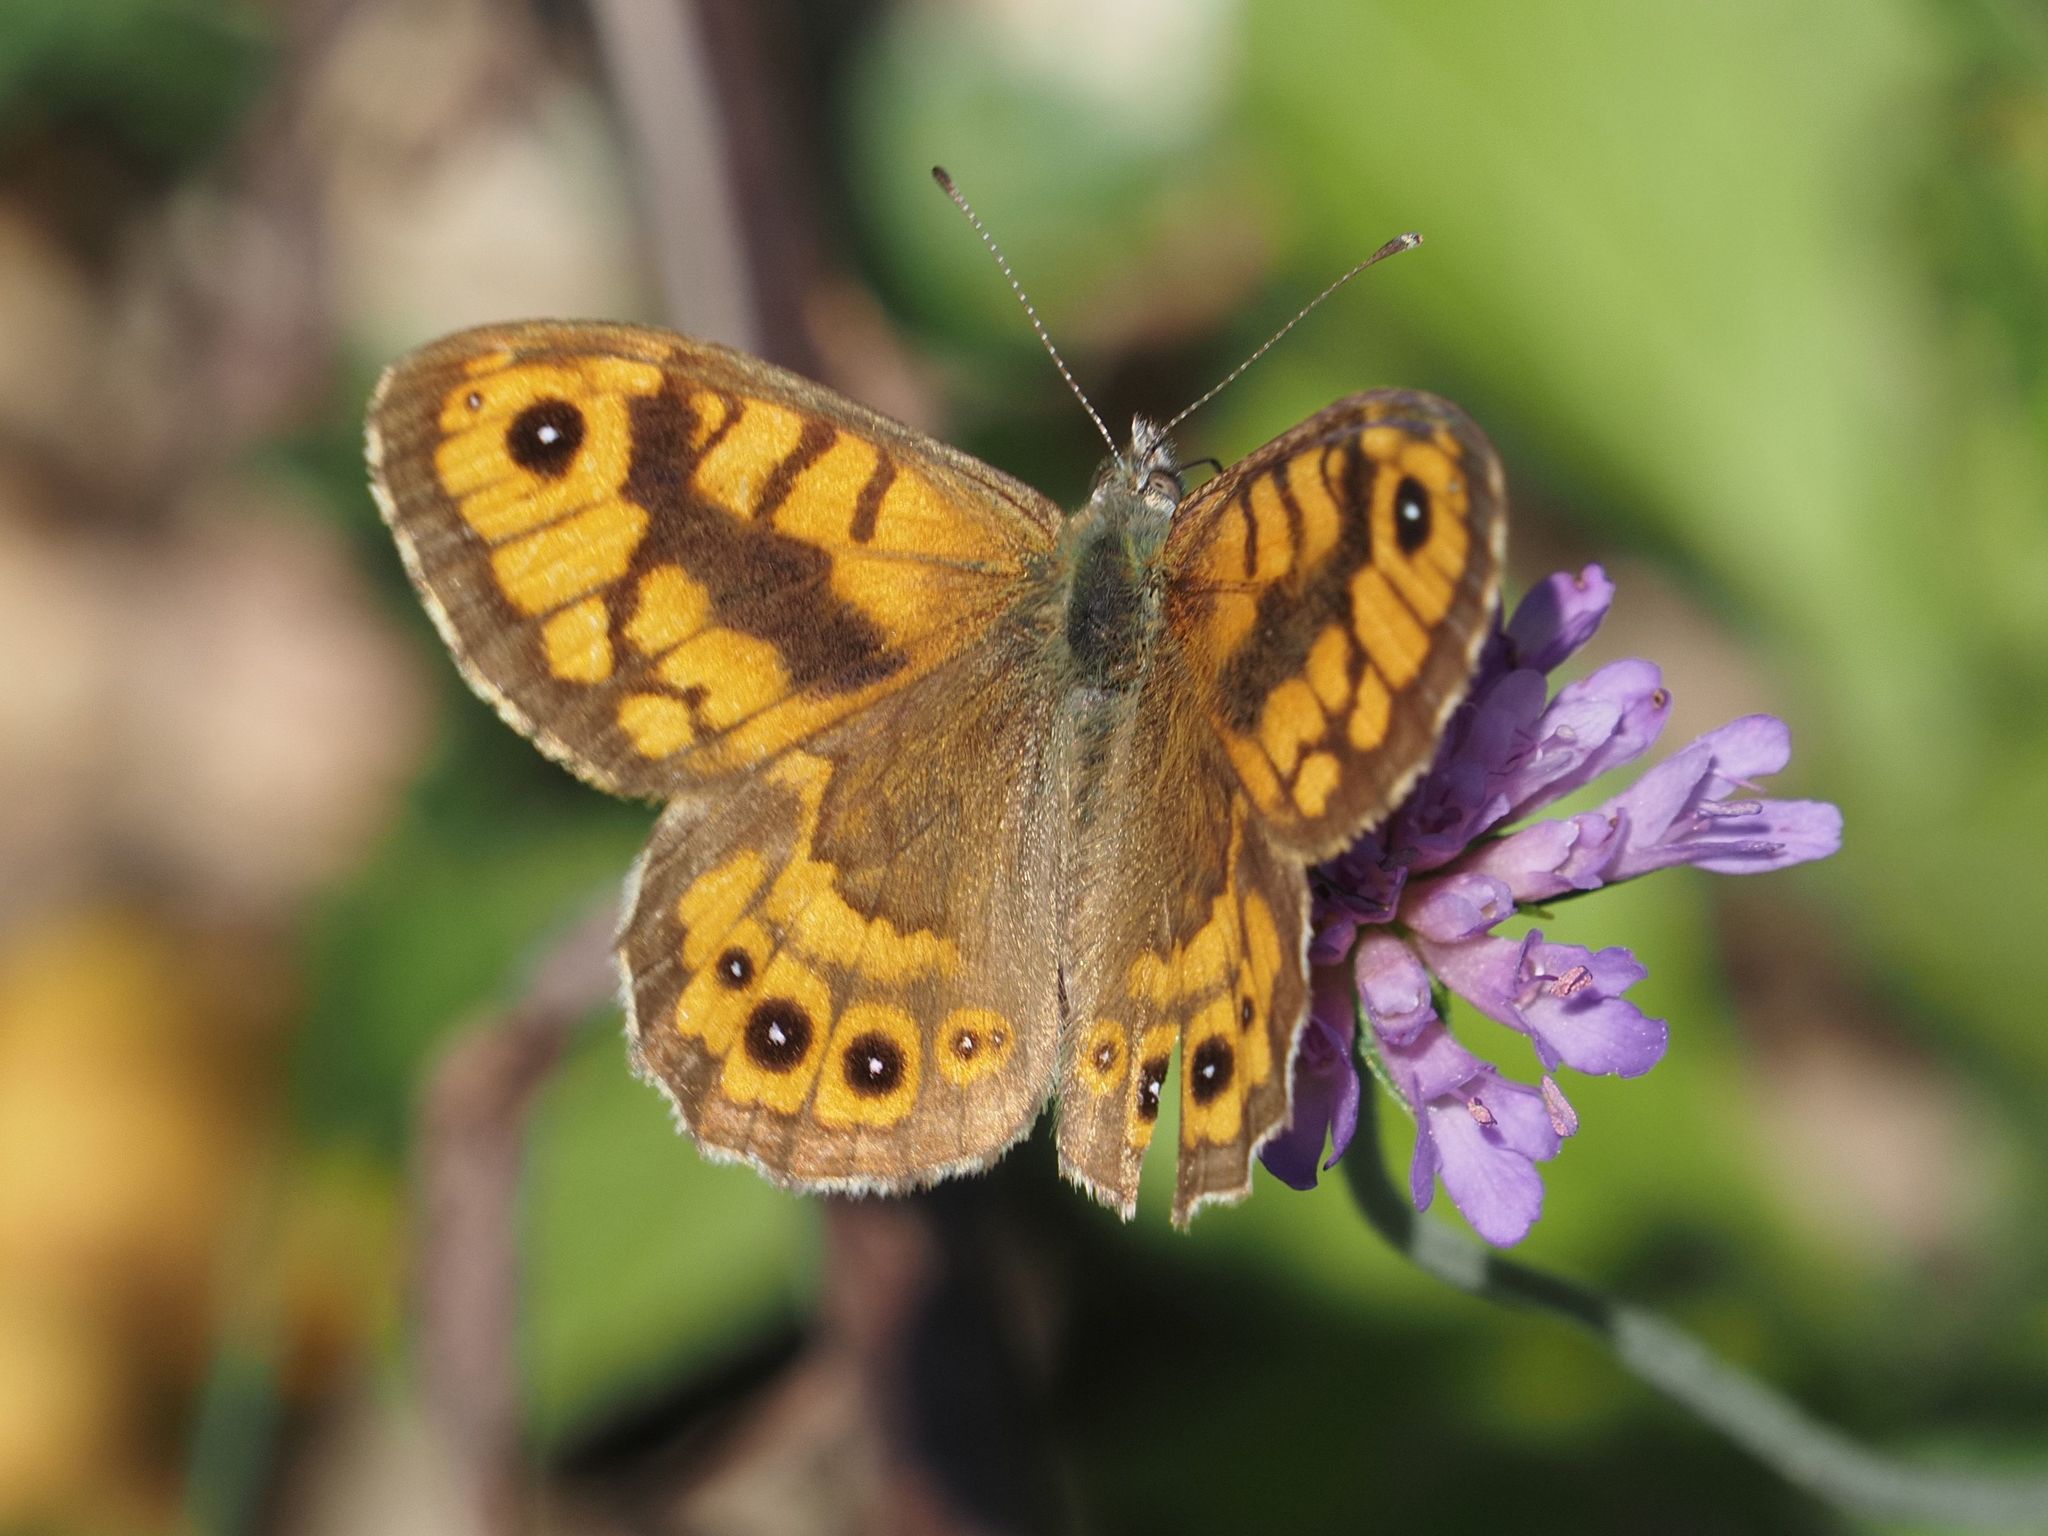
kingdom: Animalia
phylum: Arthropoda
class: Insecta
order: Lepidoptera
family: Nymphalidae
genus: Pararge
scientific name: Pararge Lasiommata megera
